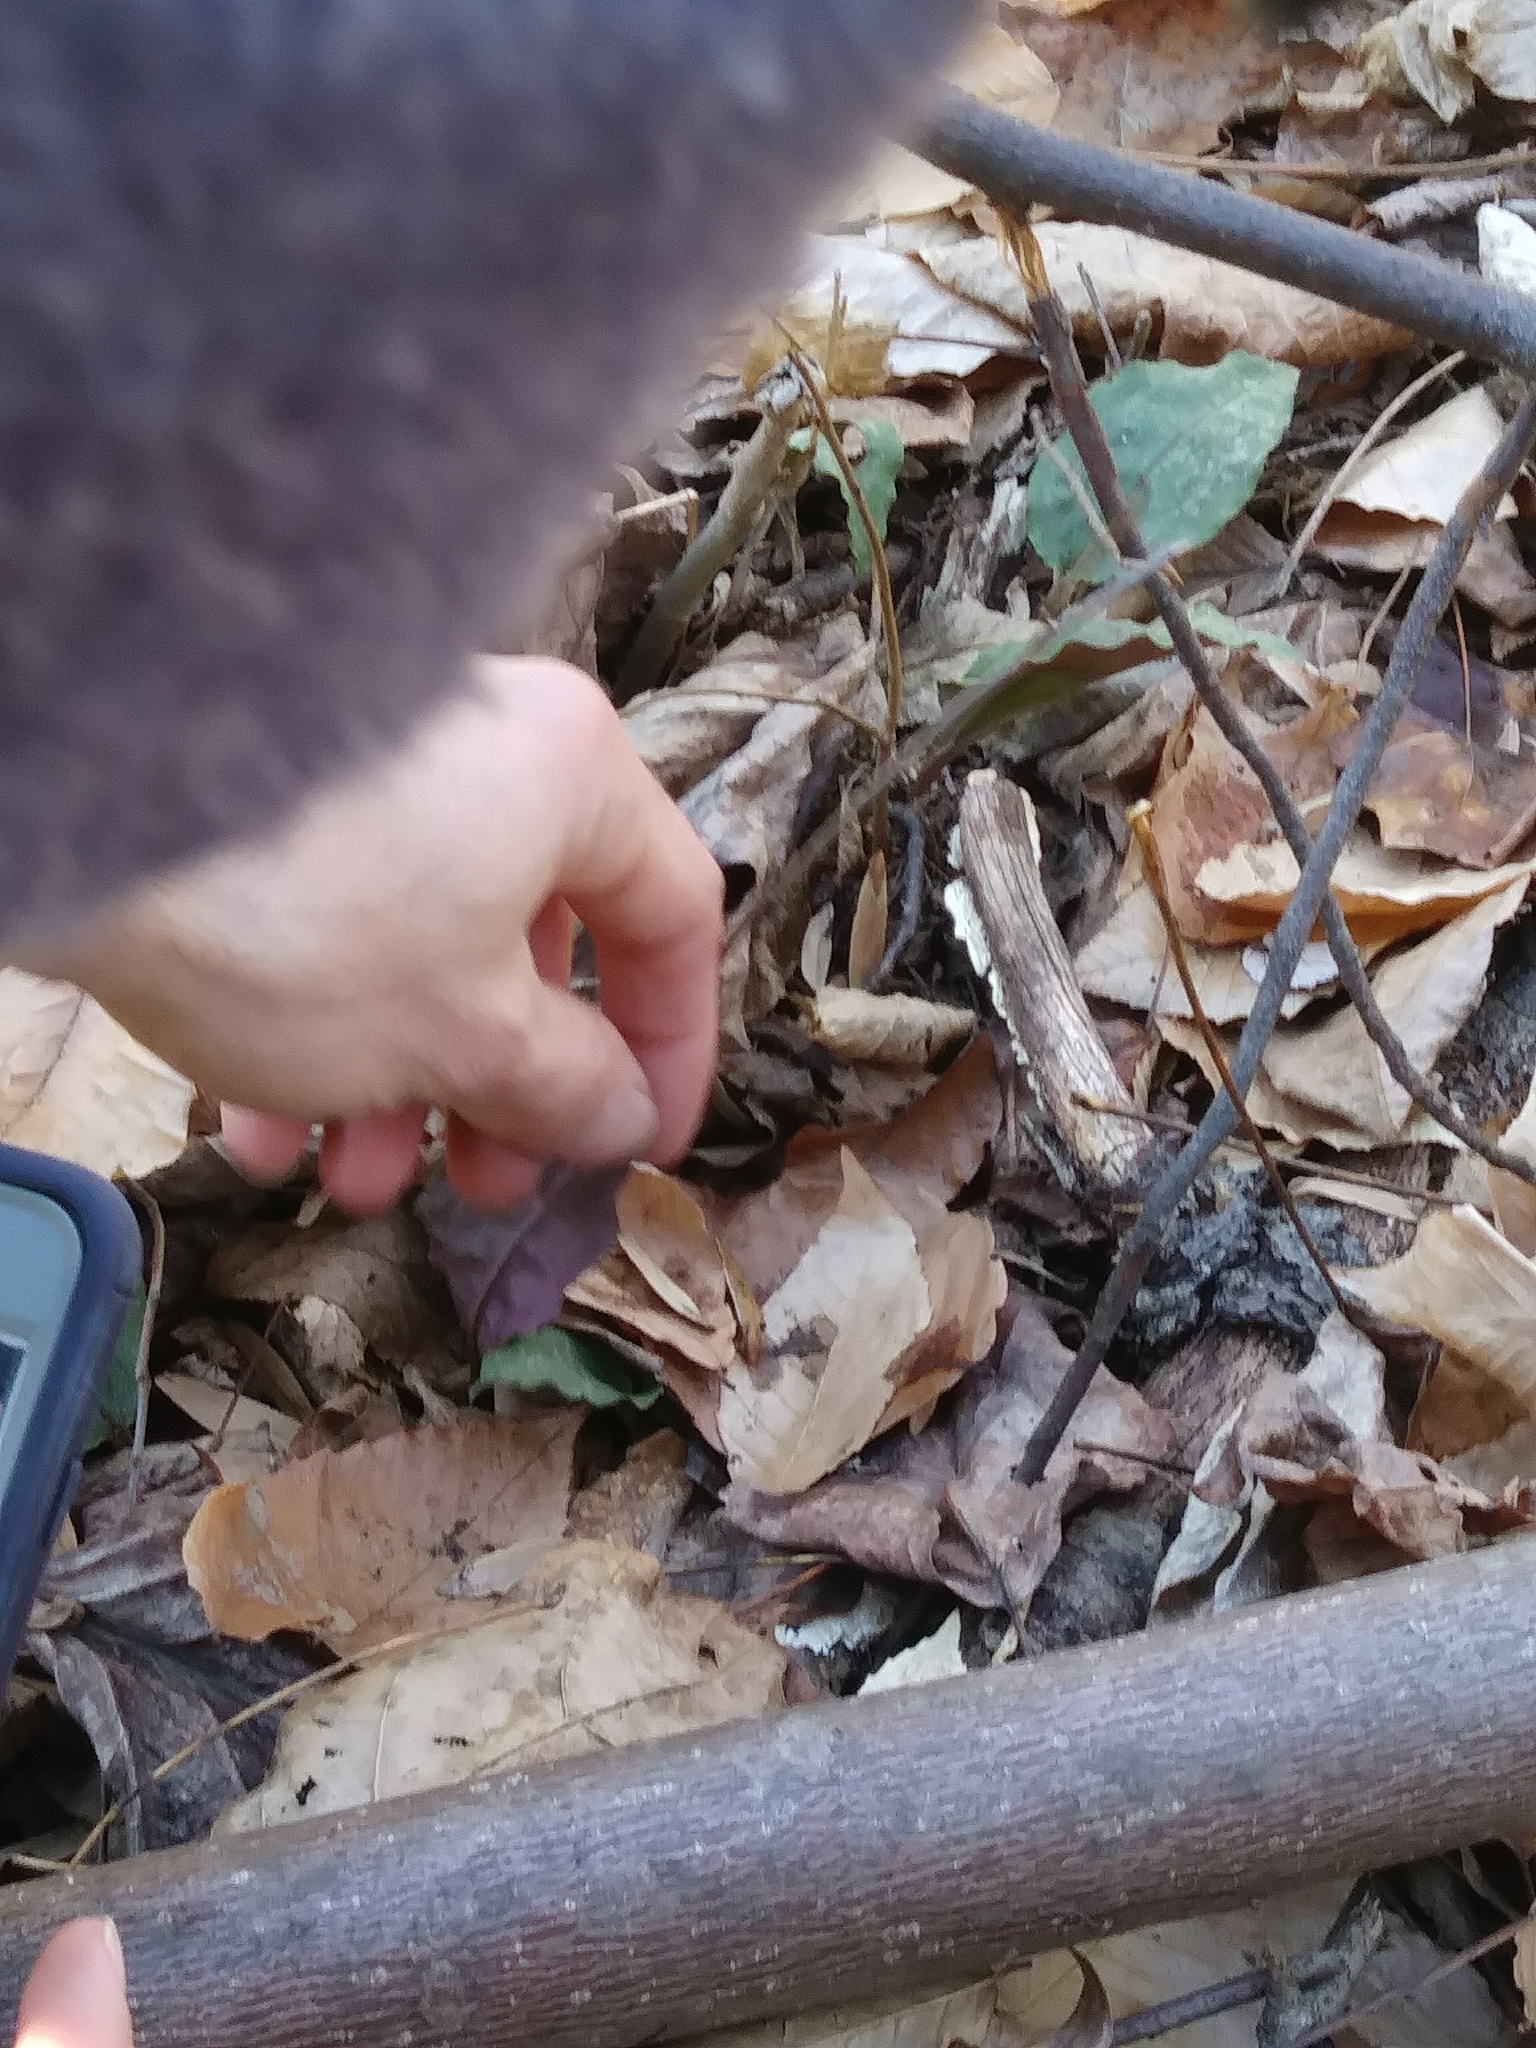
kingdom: Plantae
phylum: Tracheophyta
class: Liliopsida
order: Asparagales
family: Orchidaceae
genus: Tipularia
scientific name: Tipularia discolor
